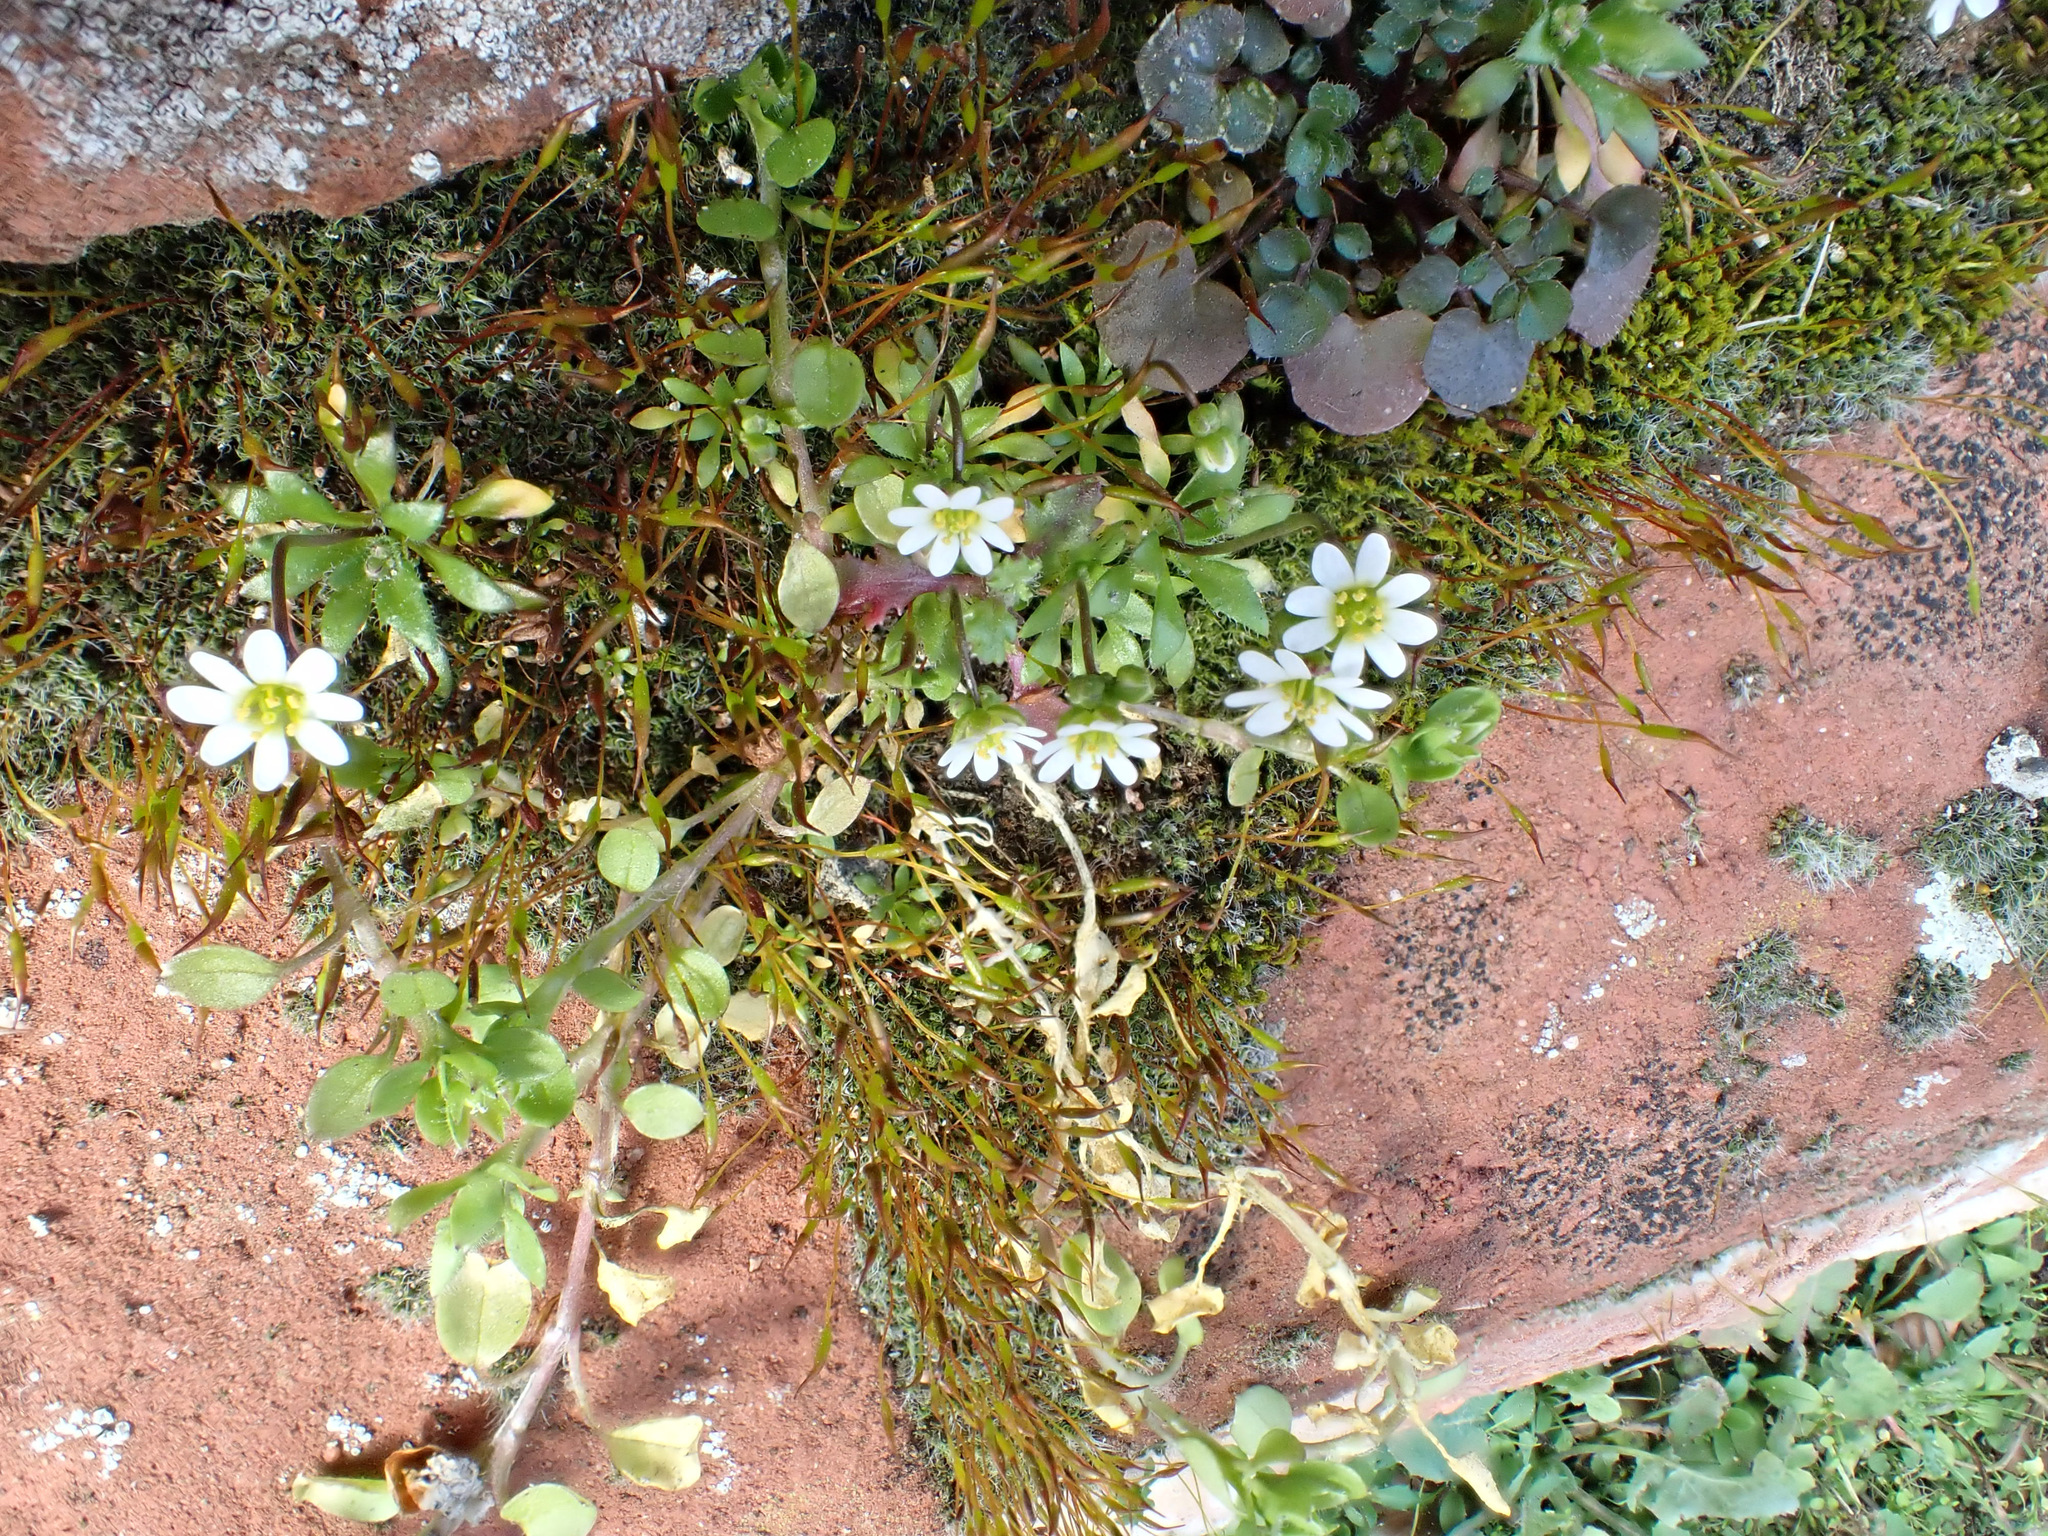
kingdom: Plantae
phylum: Tracheophyta
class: Magnoliopsida
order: Brassicales
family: Brassicaceae
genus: Draba
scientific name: Draba verna
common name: Spring draba
